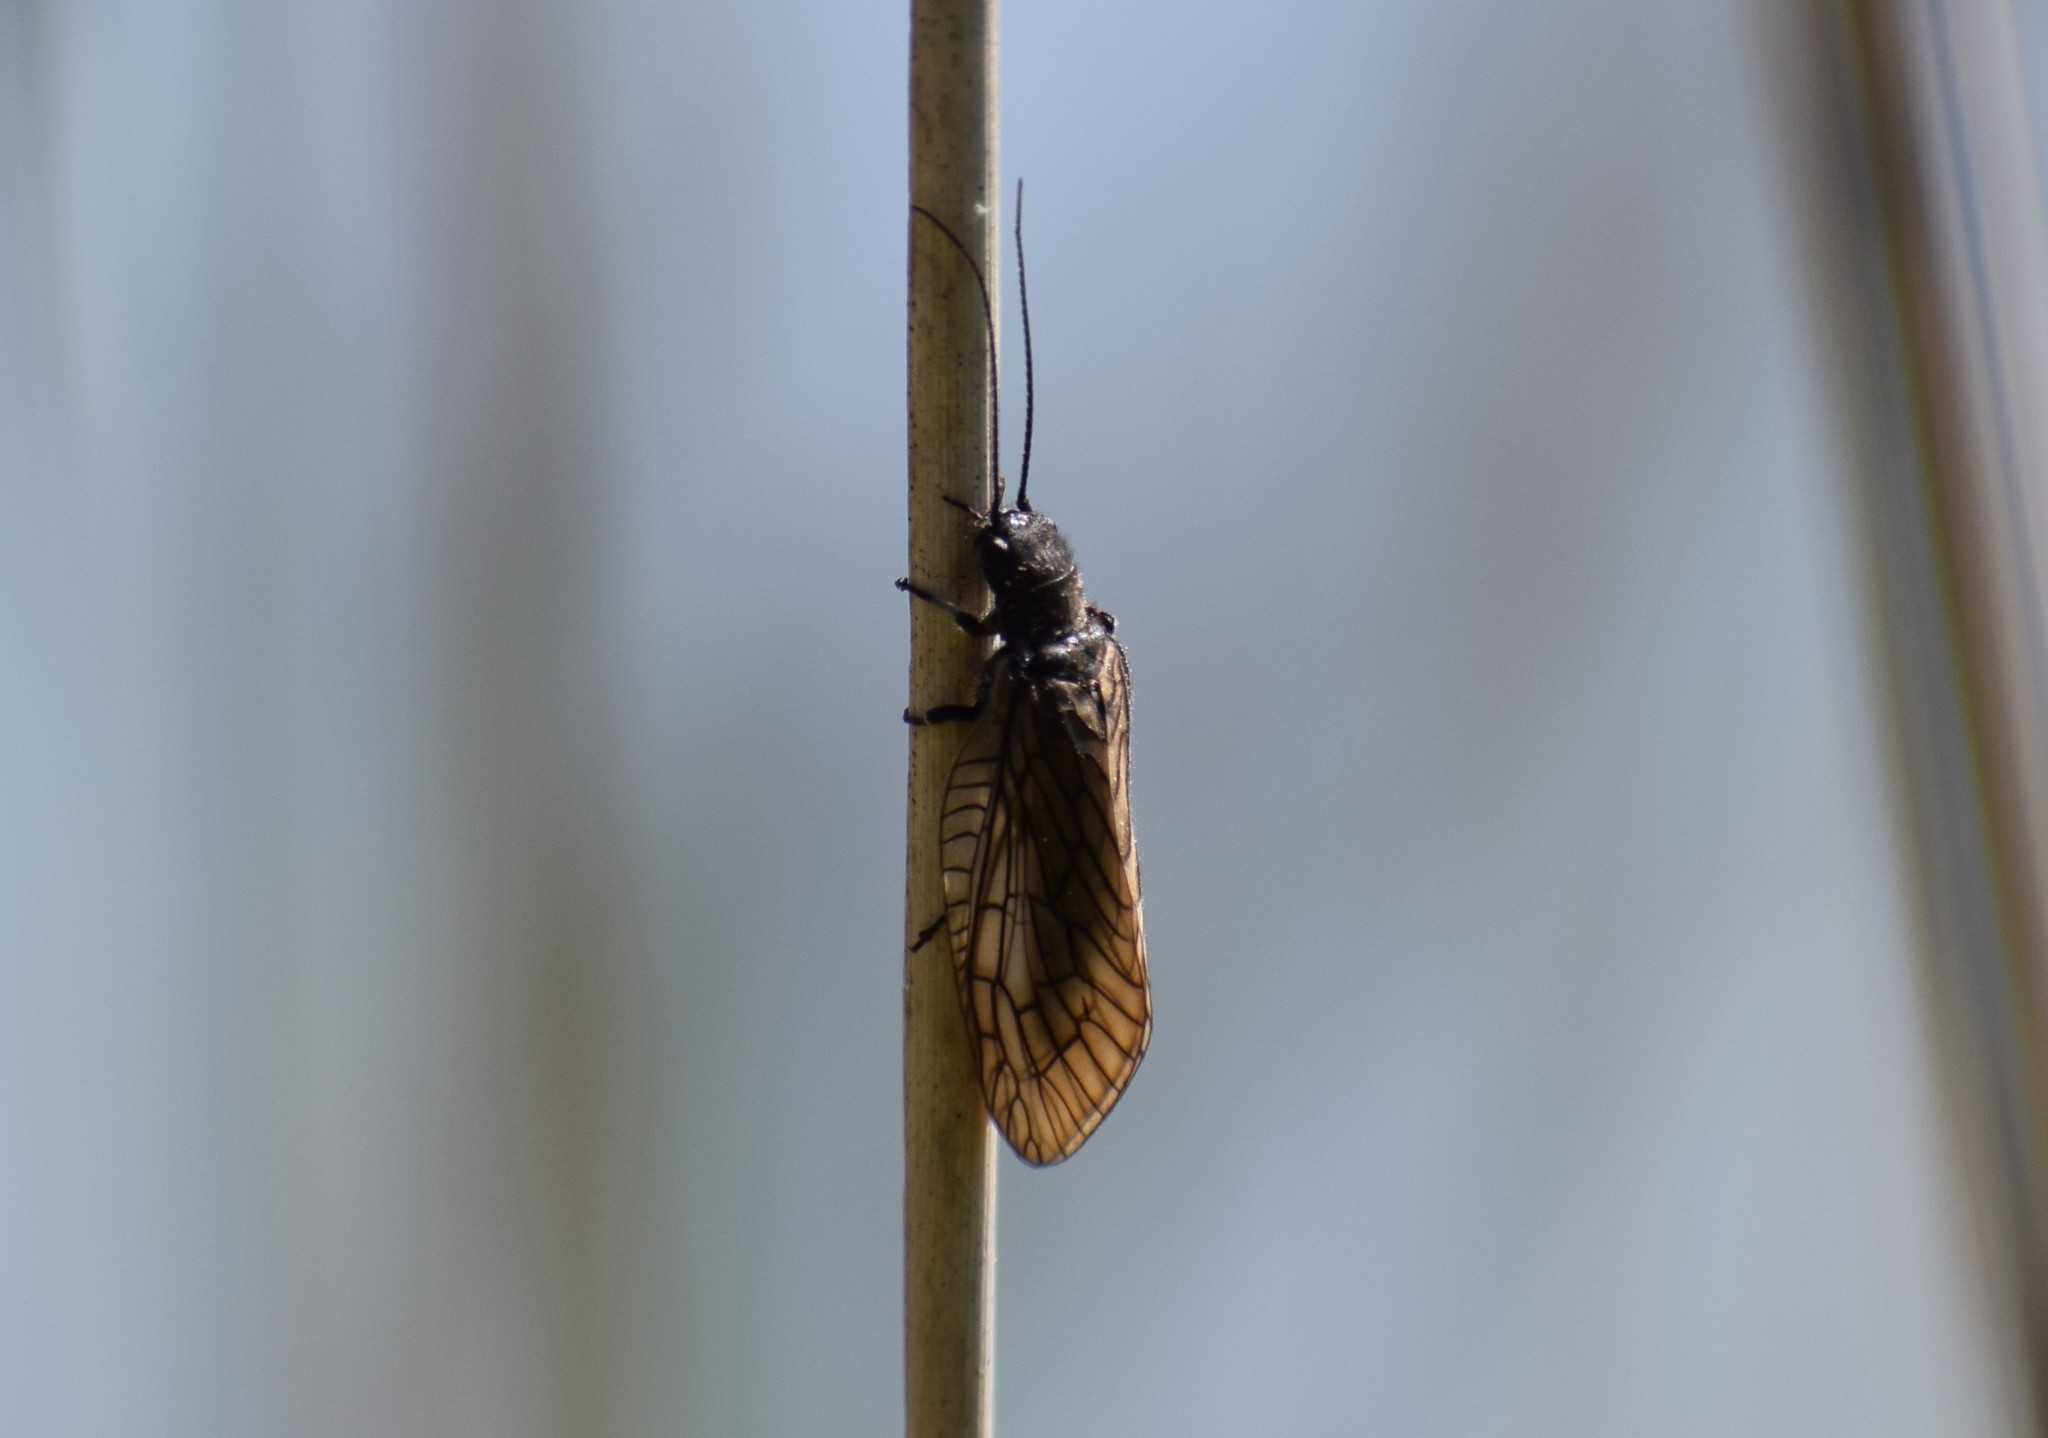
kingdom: Animalia
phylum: Arthropoda
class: Insecta
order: Megaloptera
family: Sialidae
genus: Sialis
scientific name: Sialis
